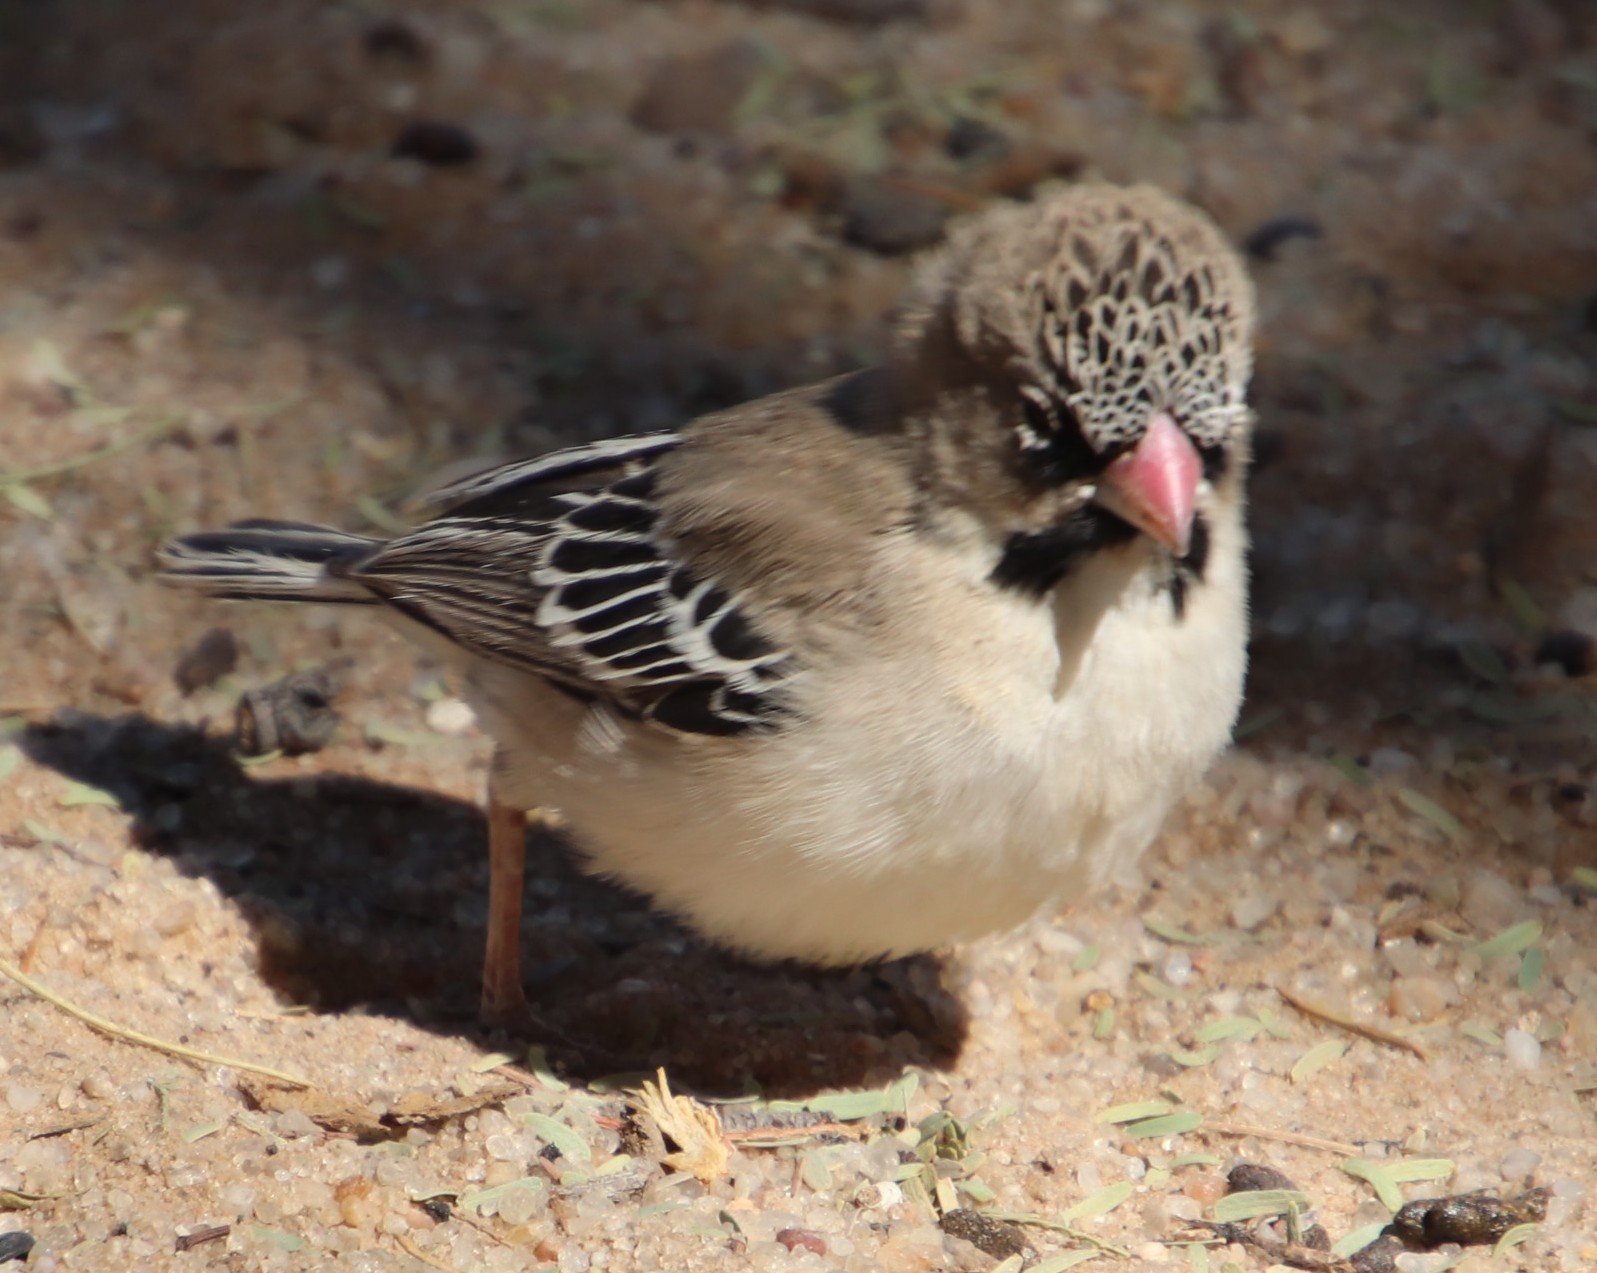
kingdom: Animalia
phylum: Chordata
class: Aves
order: Passeriformes
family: Ploceidae
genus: Sporopipes
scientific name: Sporopipes squamifrons
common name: Scaly-feathered weaver
